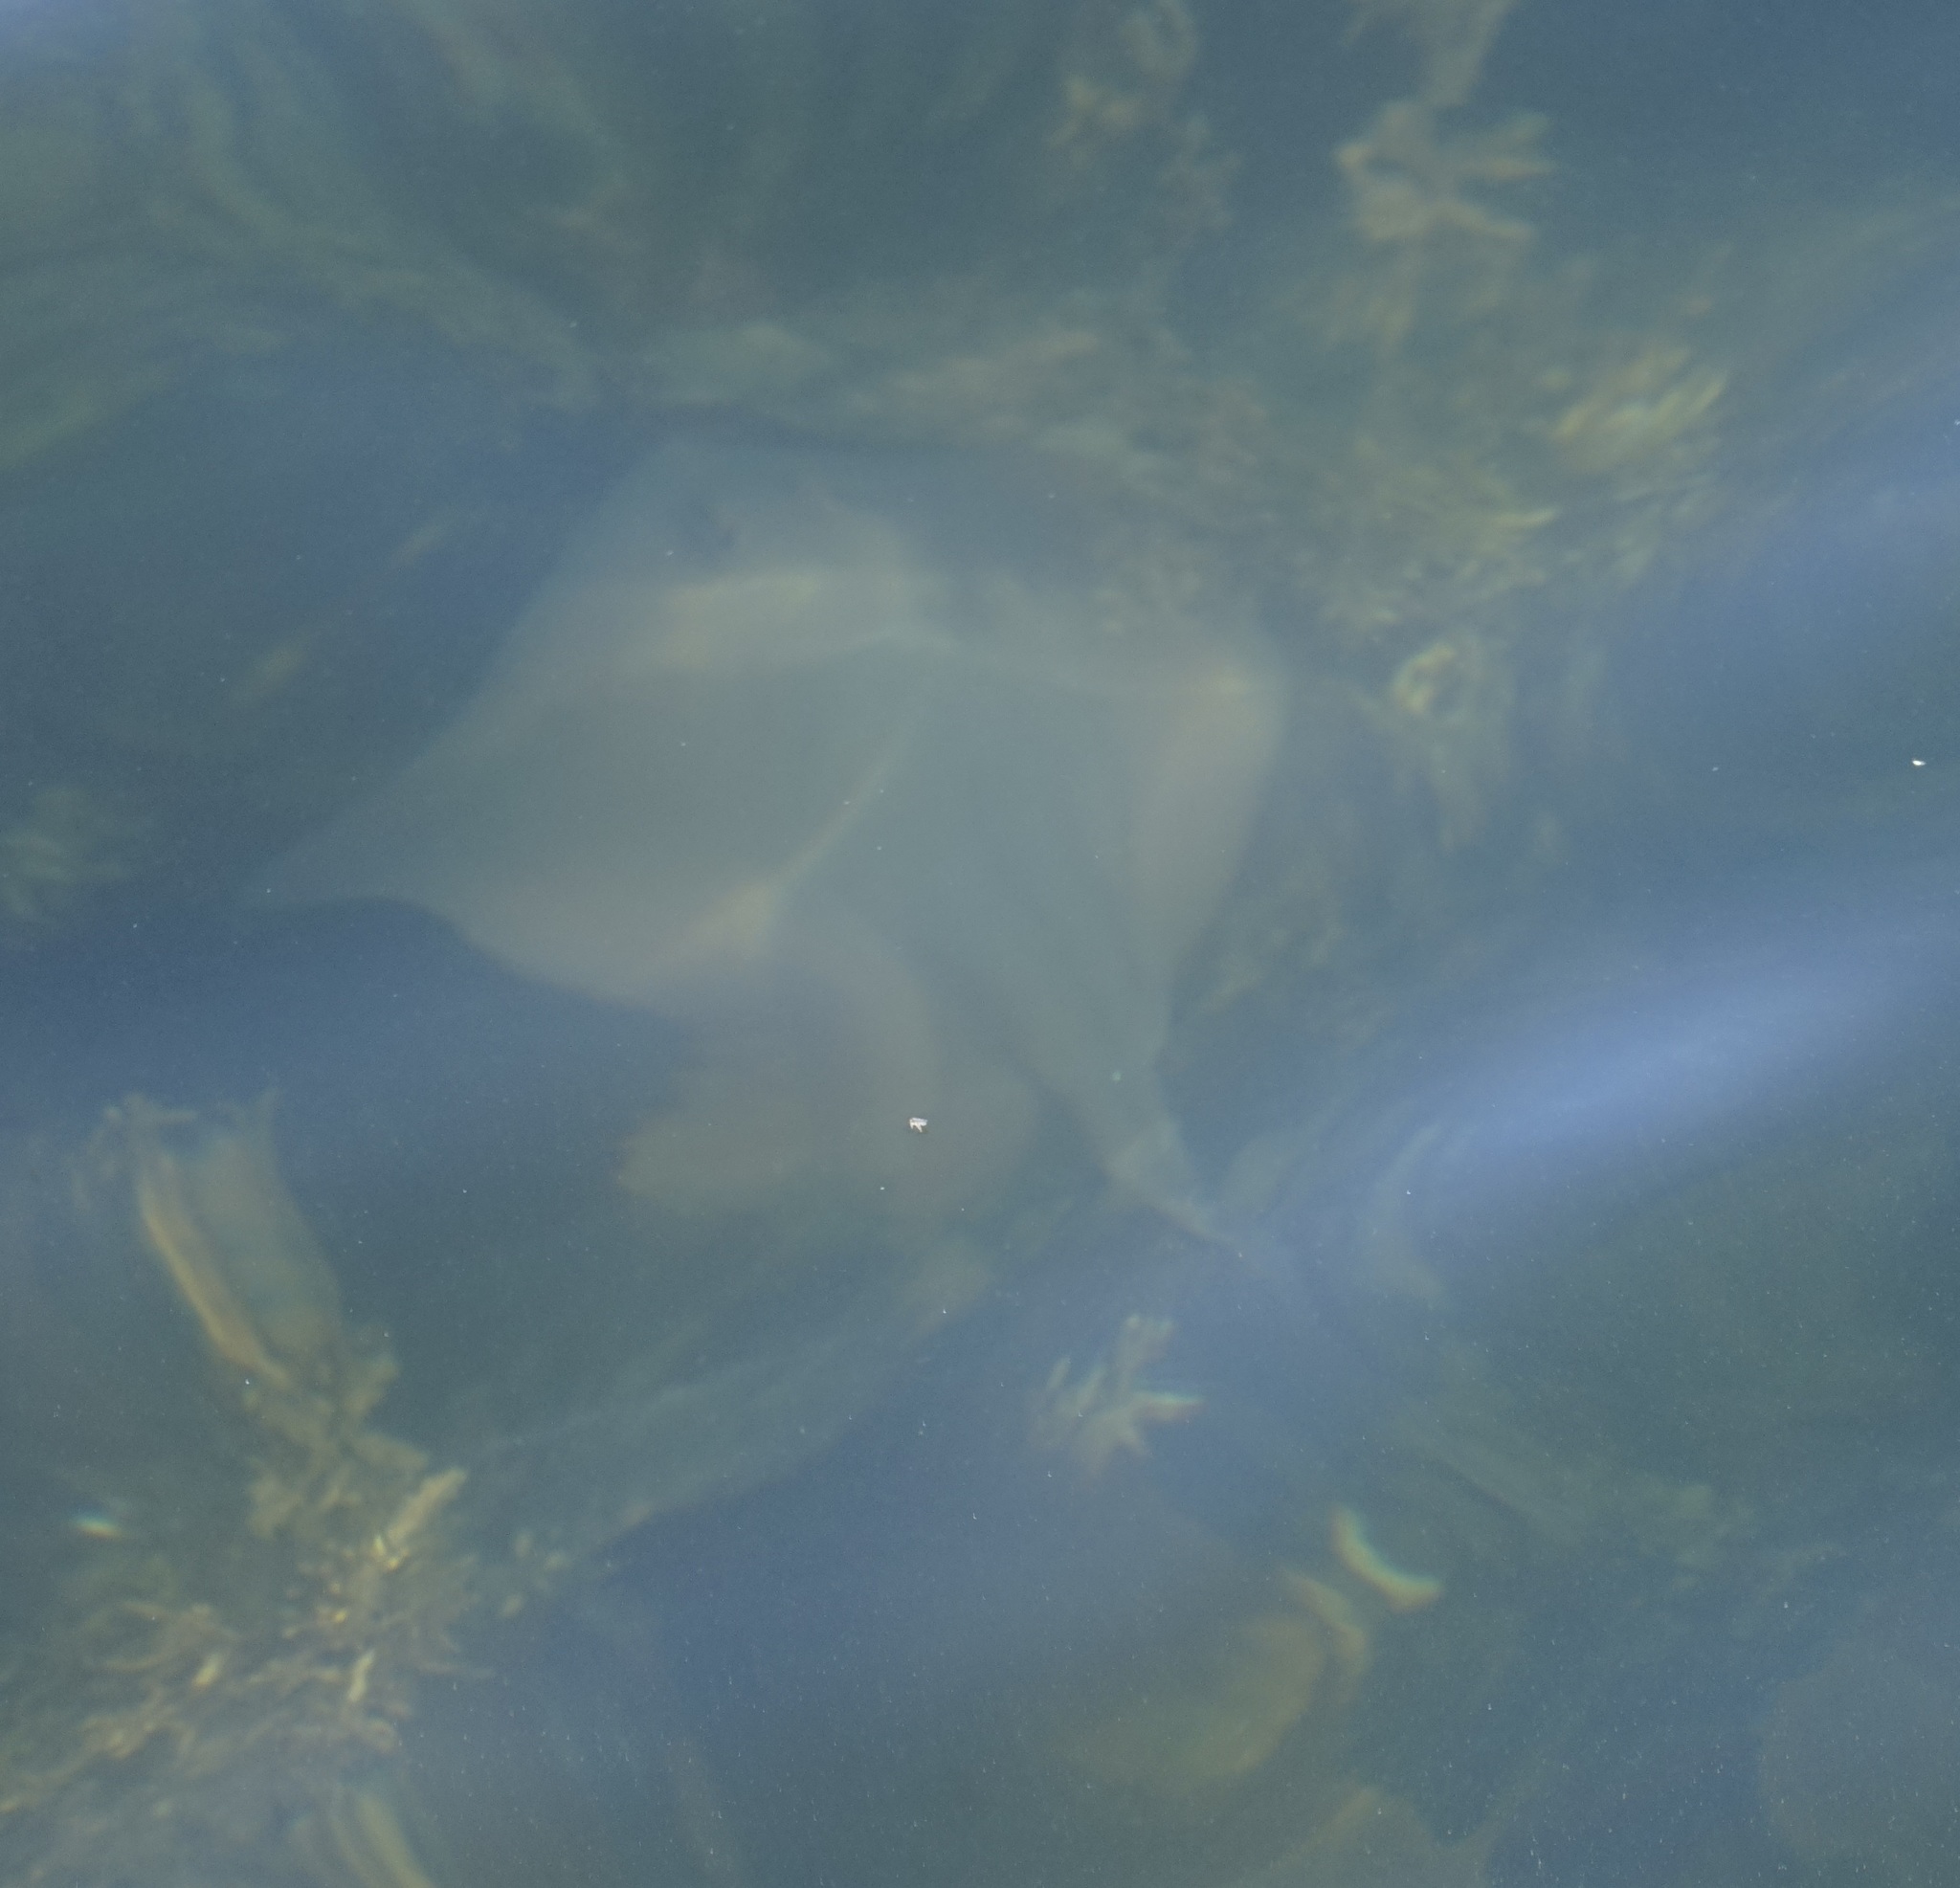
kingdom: Animalia
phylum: Chordata
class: Elasmobranchii
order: Myliobatiformes
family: Urolophidae
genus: Trygonoptera
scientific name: Trygonoptera testacea
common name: Common stingaree
